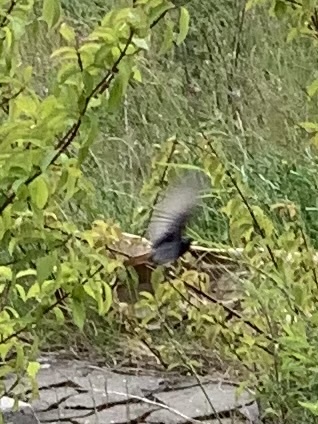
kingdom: Animalia
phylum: Chordata
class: Aves
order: Passeriformes
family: Muscicapidae
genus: Phoenicurus
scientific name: Phoenicurus ochruros
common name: Black redstart
